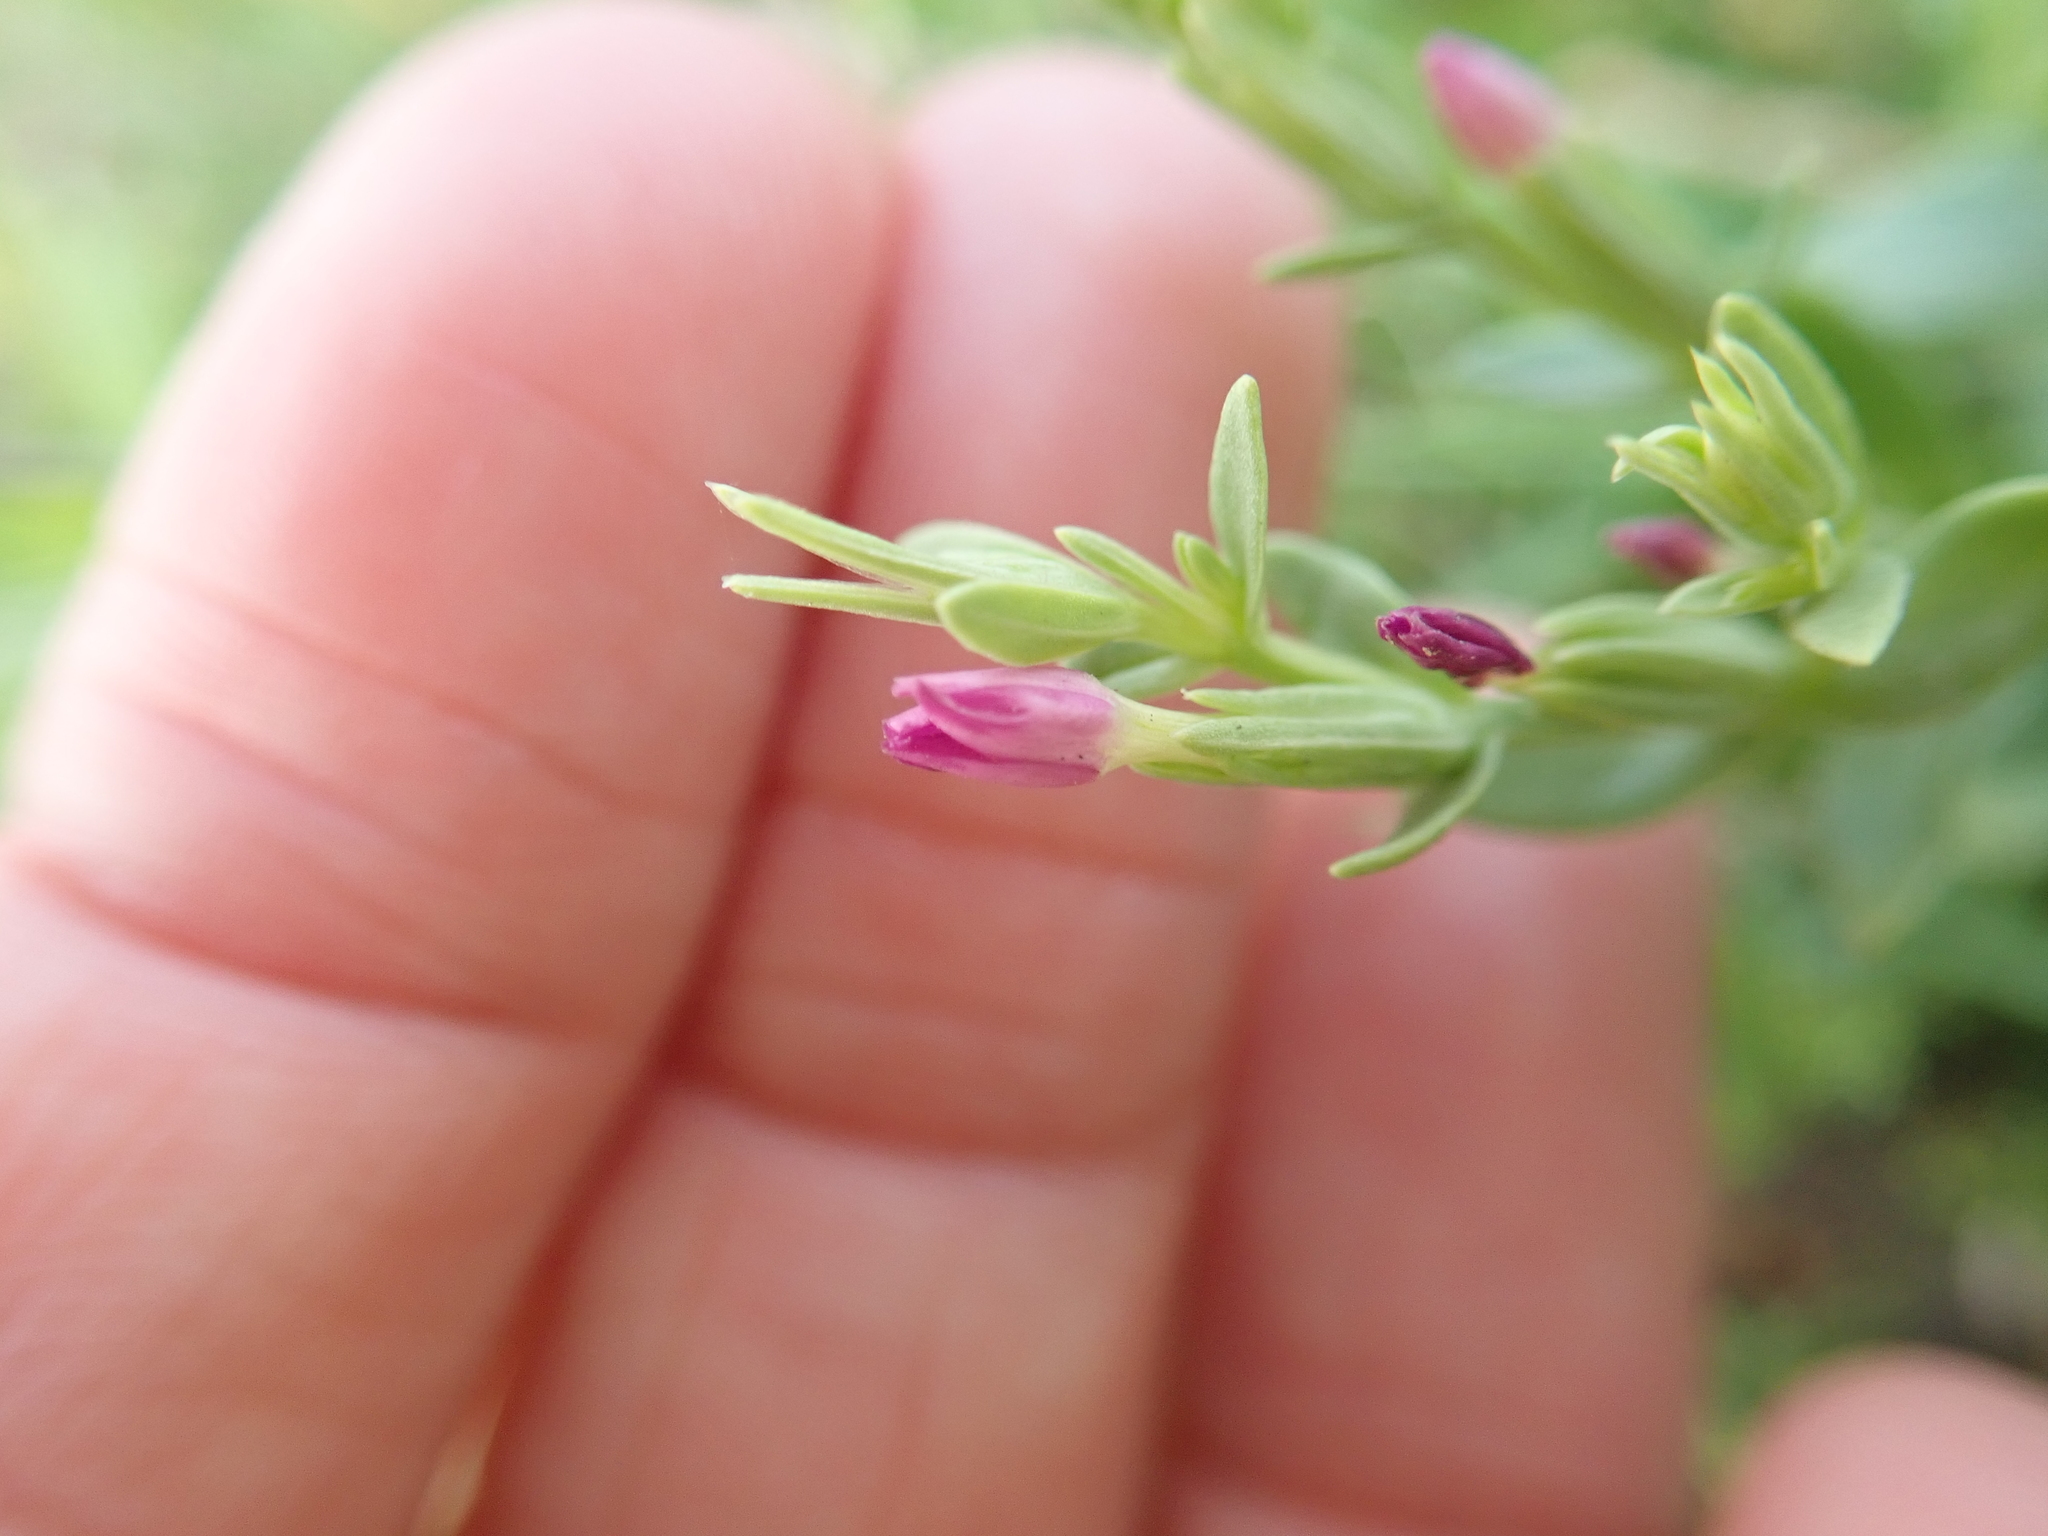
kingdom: Plantae
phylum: Tracheophyta
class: Magnoliopsida
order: Gentianales
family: Gentianaceae
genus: Schenkia
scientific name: Schenkia japonica
